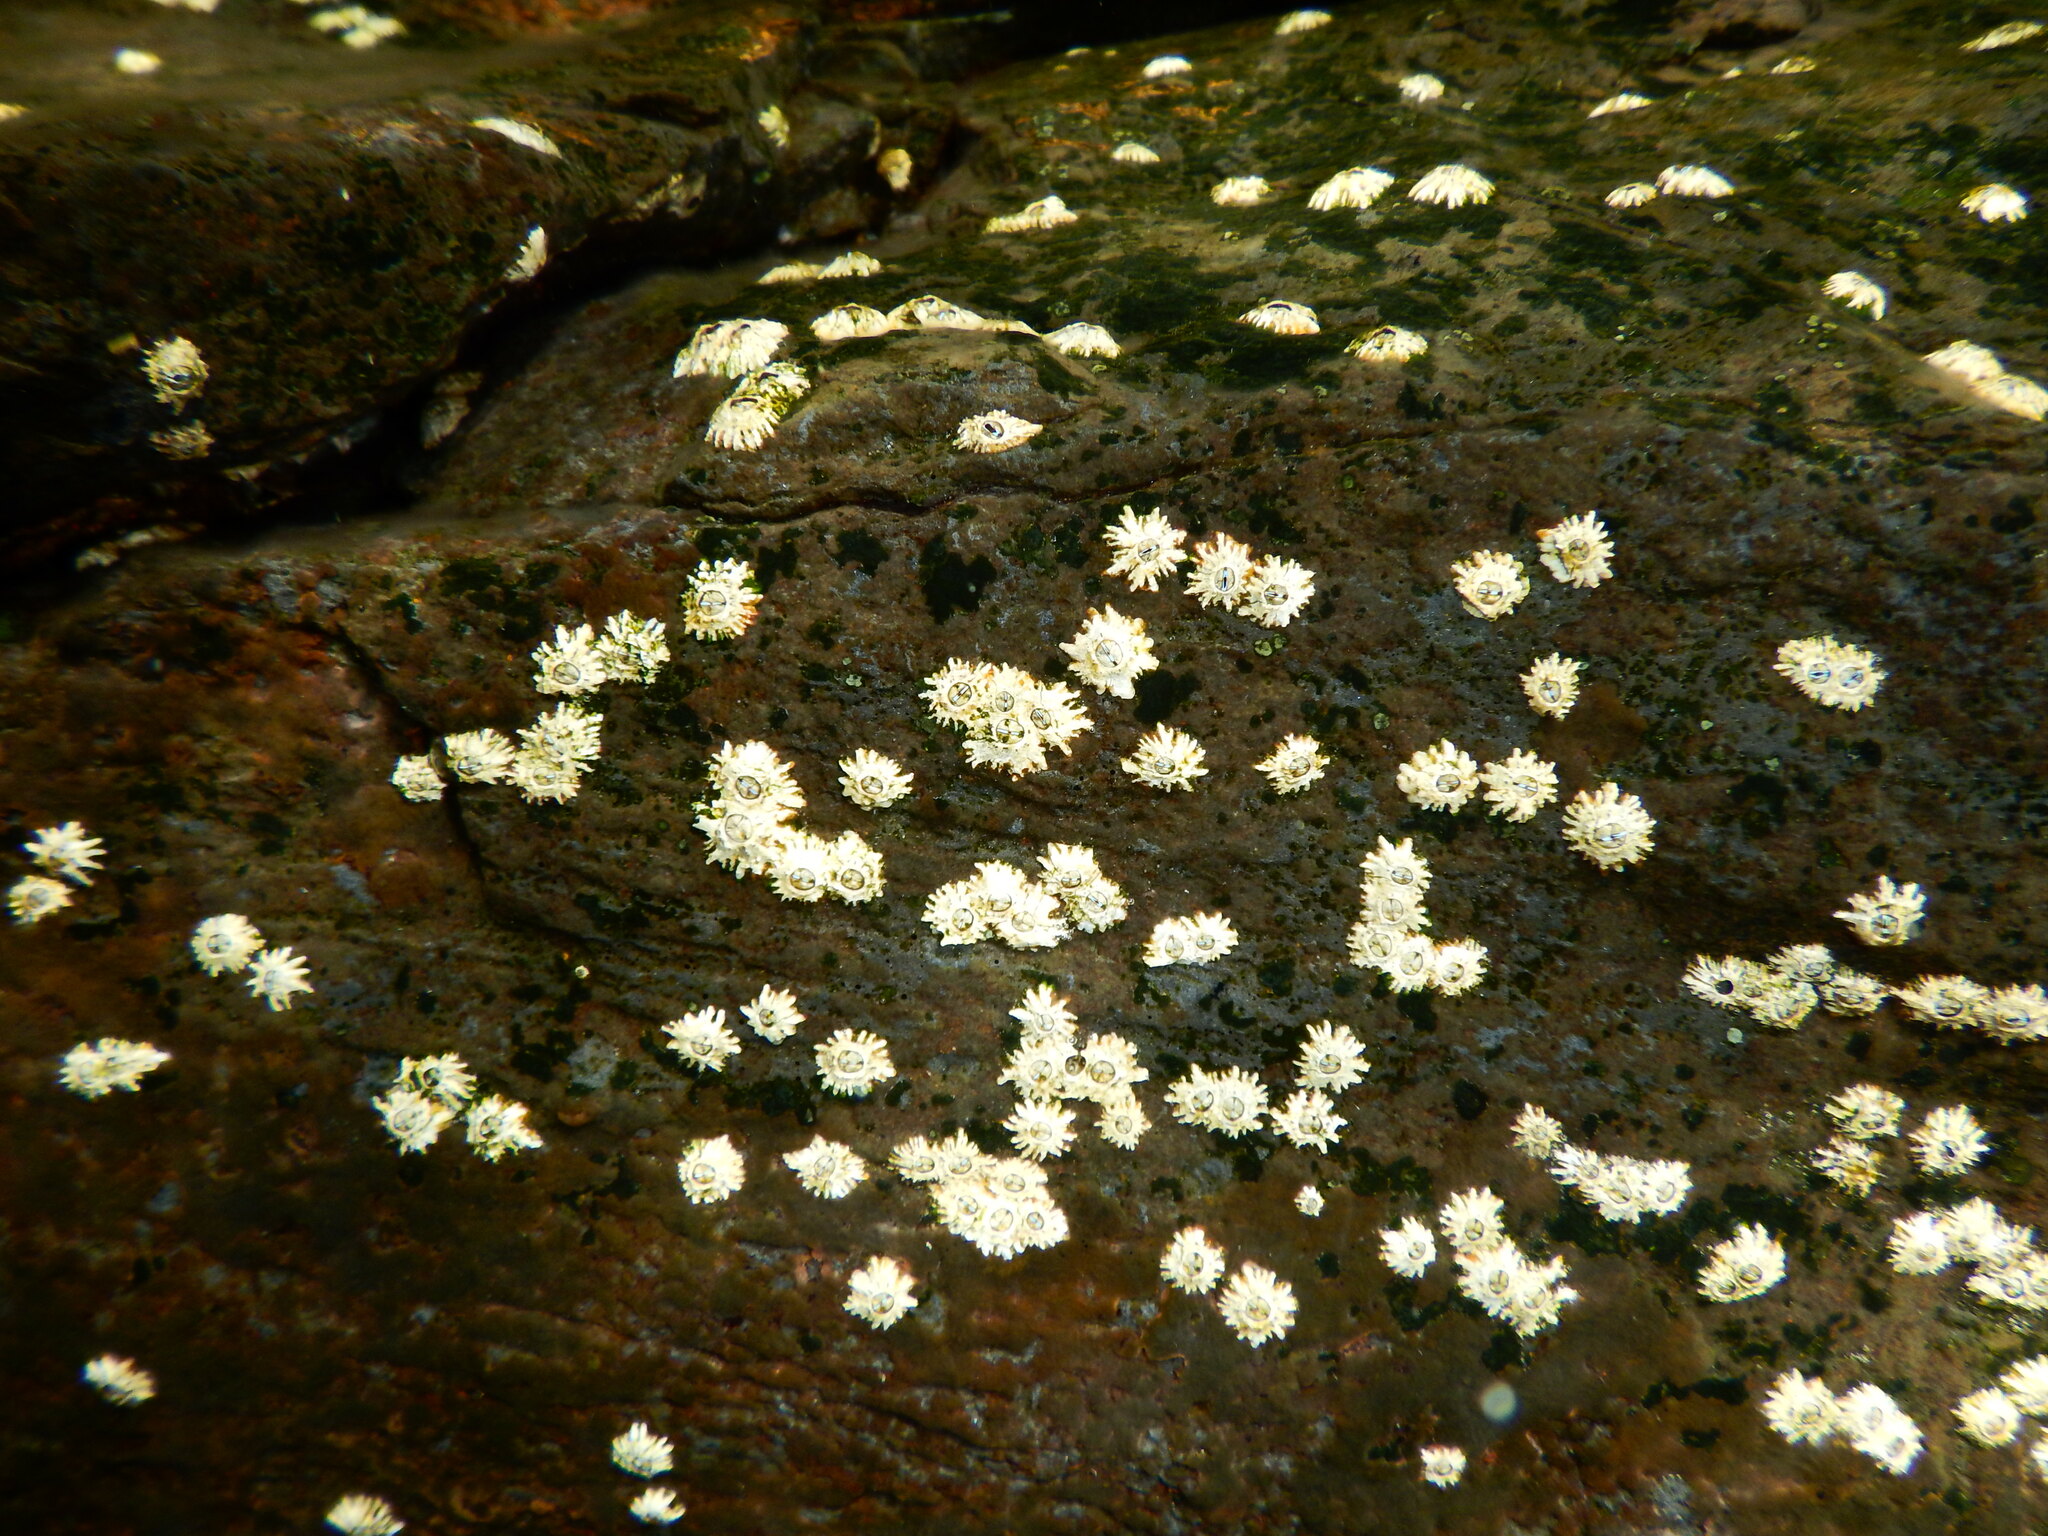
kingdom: Animalia
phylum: Arthropoda
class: Maxillopoda
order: Sessilia
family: Chthamalidae
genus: Chthamalus
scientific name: Chthamalus stellatus
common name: Poli's stellate barnacle
